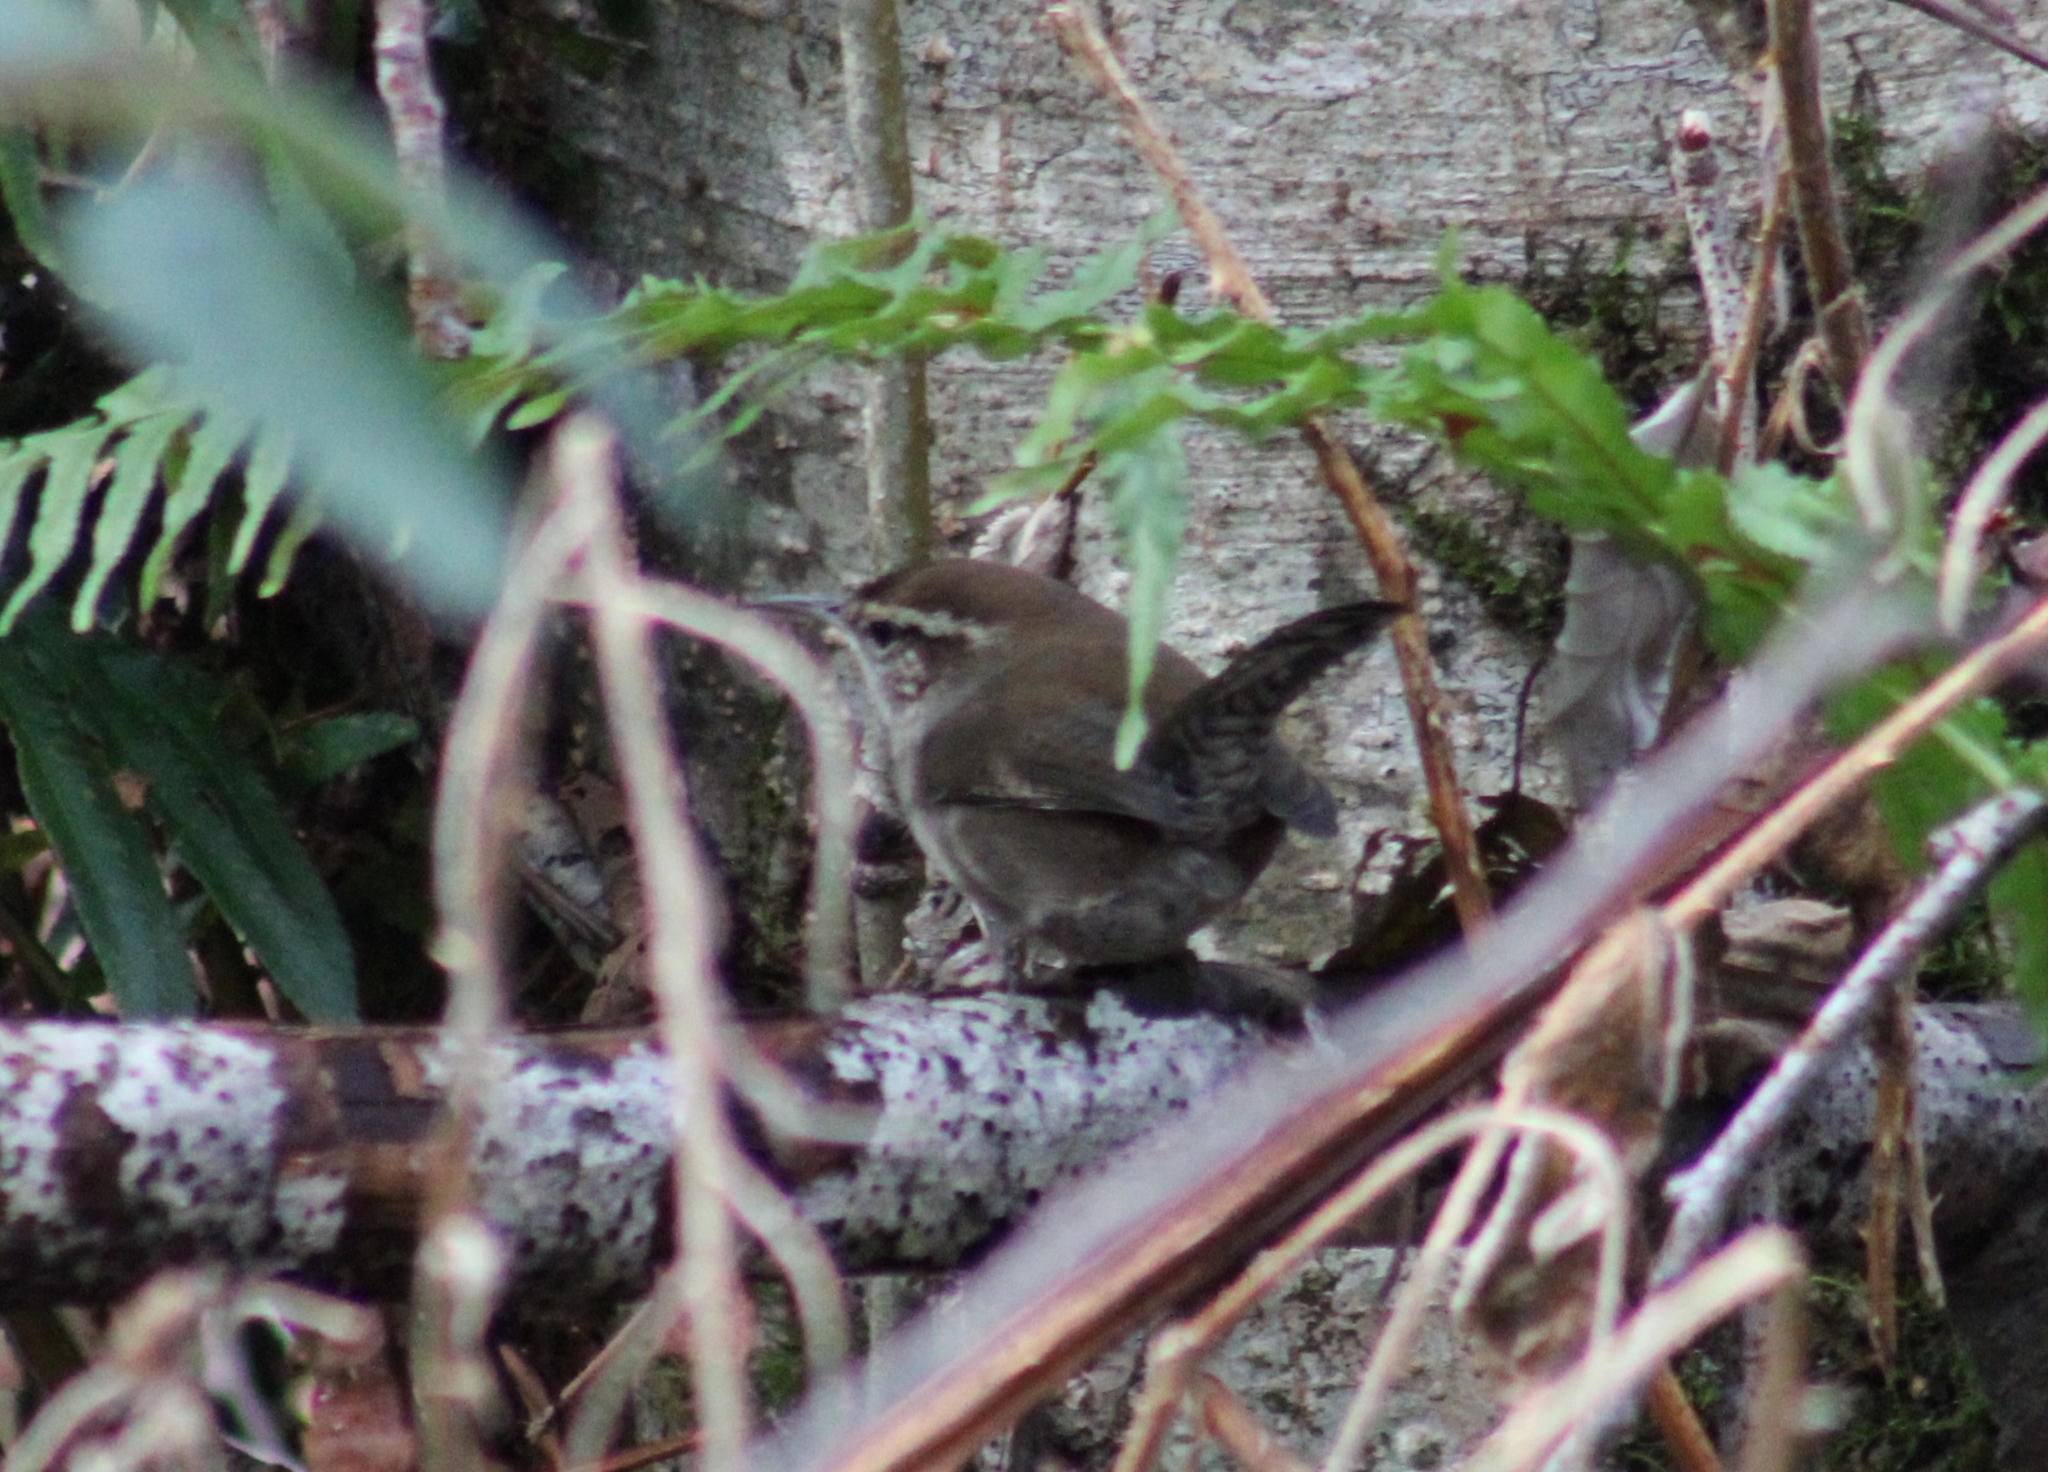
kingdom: Animalia
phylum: Chordata
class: Aves
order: Passeriformes
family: Troglodytidae
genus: Thryomanes
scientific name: Thryomanes bewickii
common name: Bewick's wren
